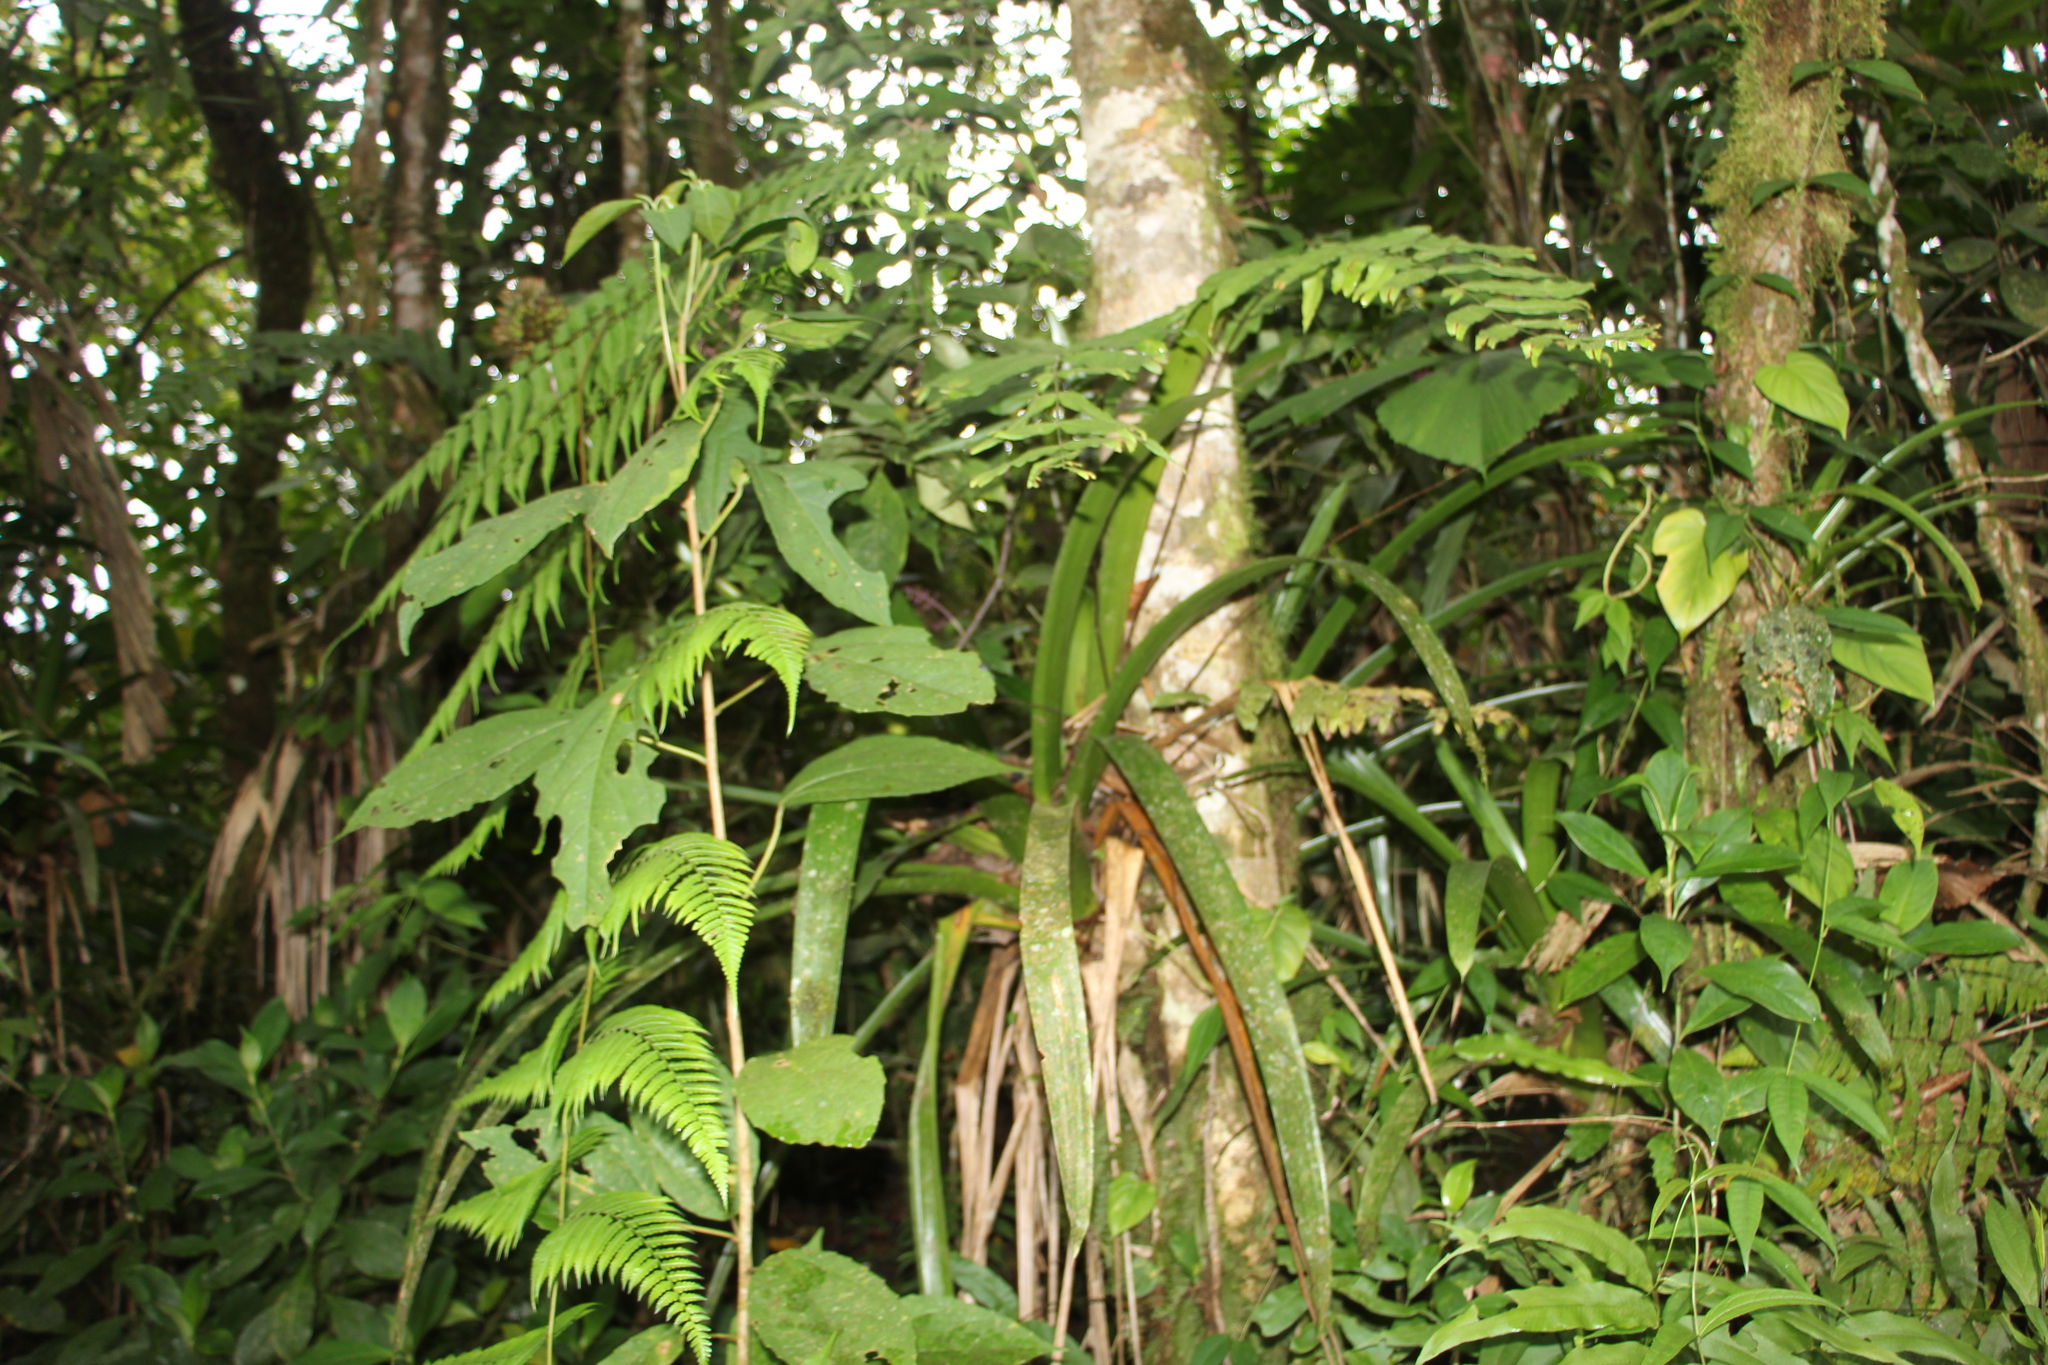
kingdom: Plantae
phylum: Tracheophyta
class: Liliopsida
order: Poales
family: Bromeliaceae
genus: Guzmania
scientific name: Guzmania triangularis
